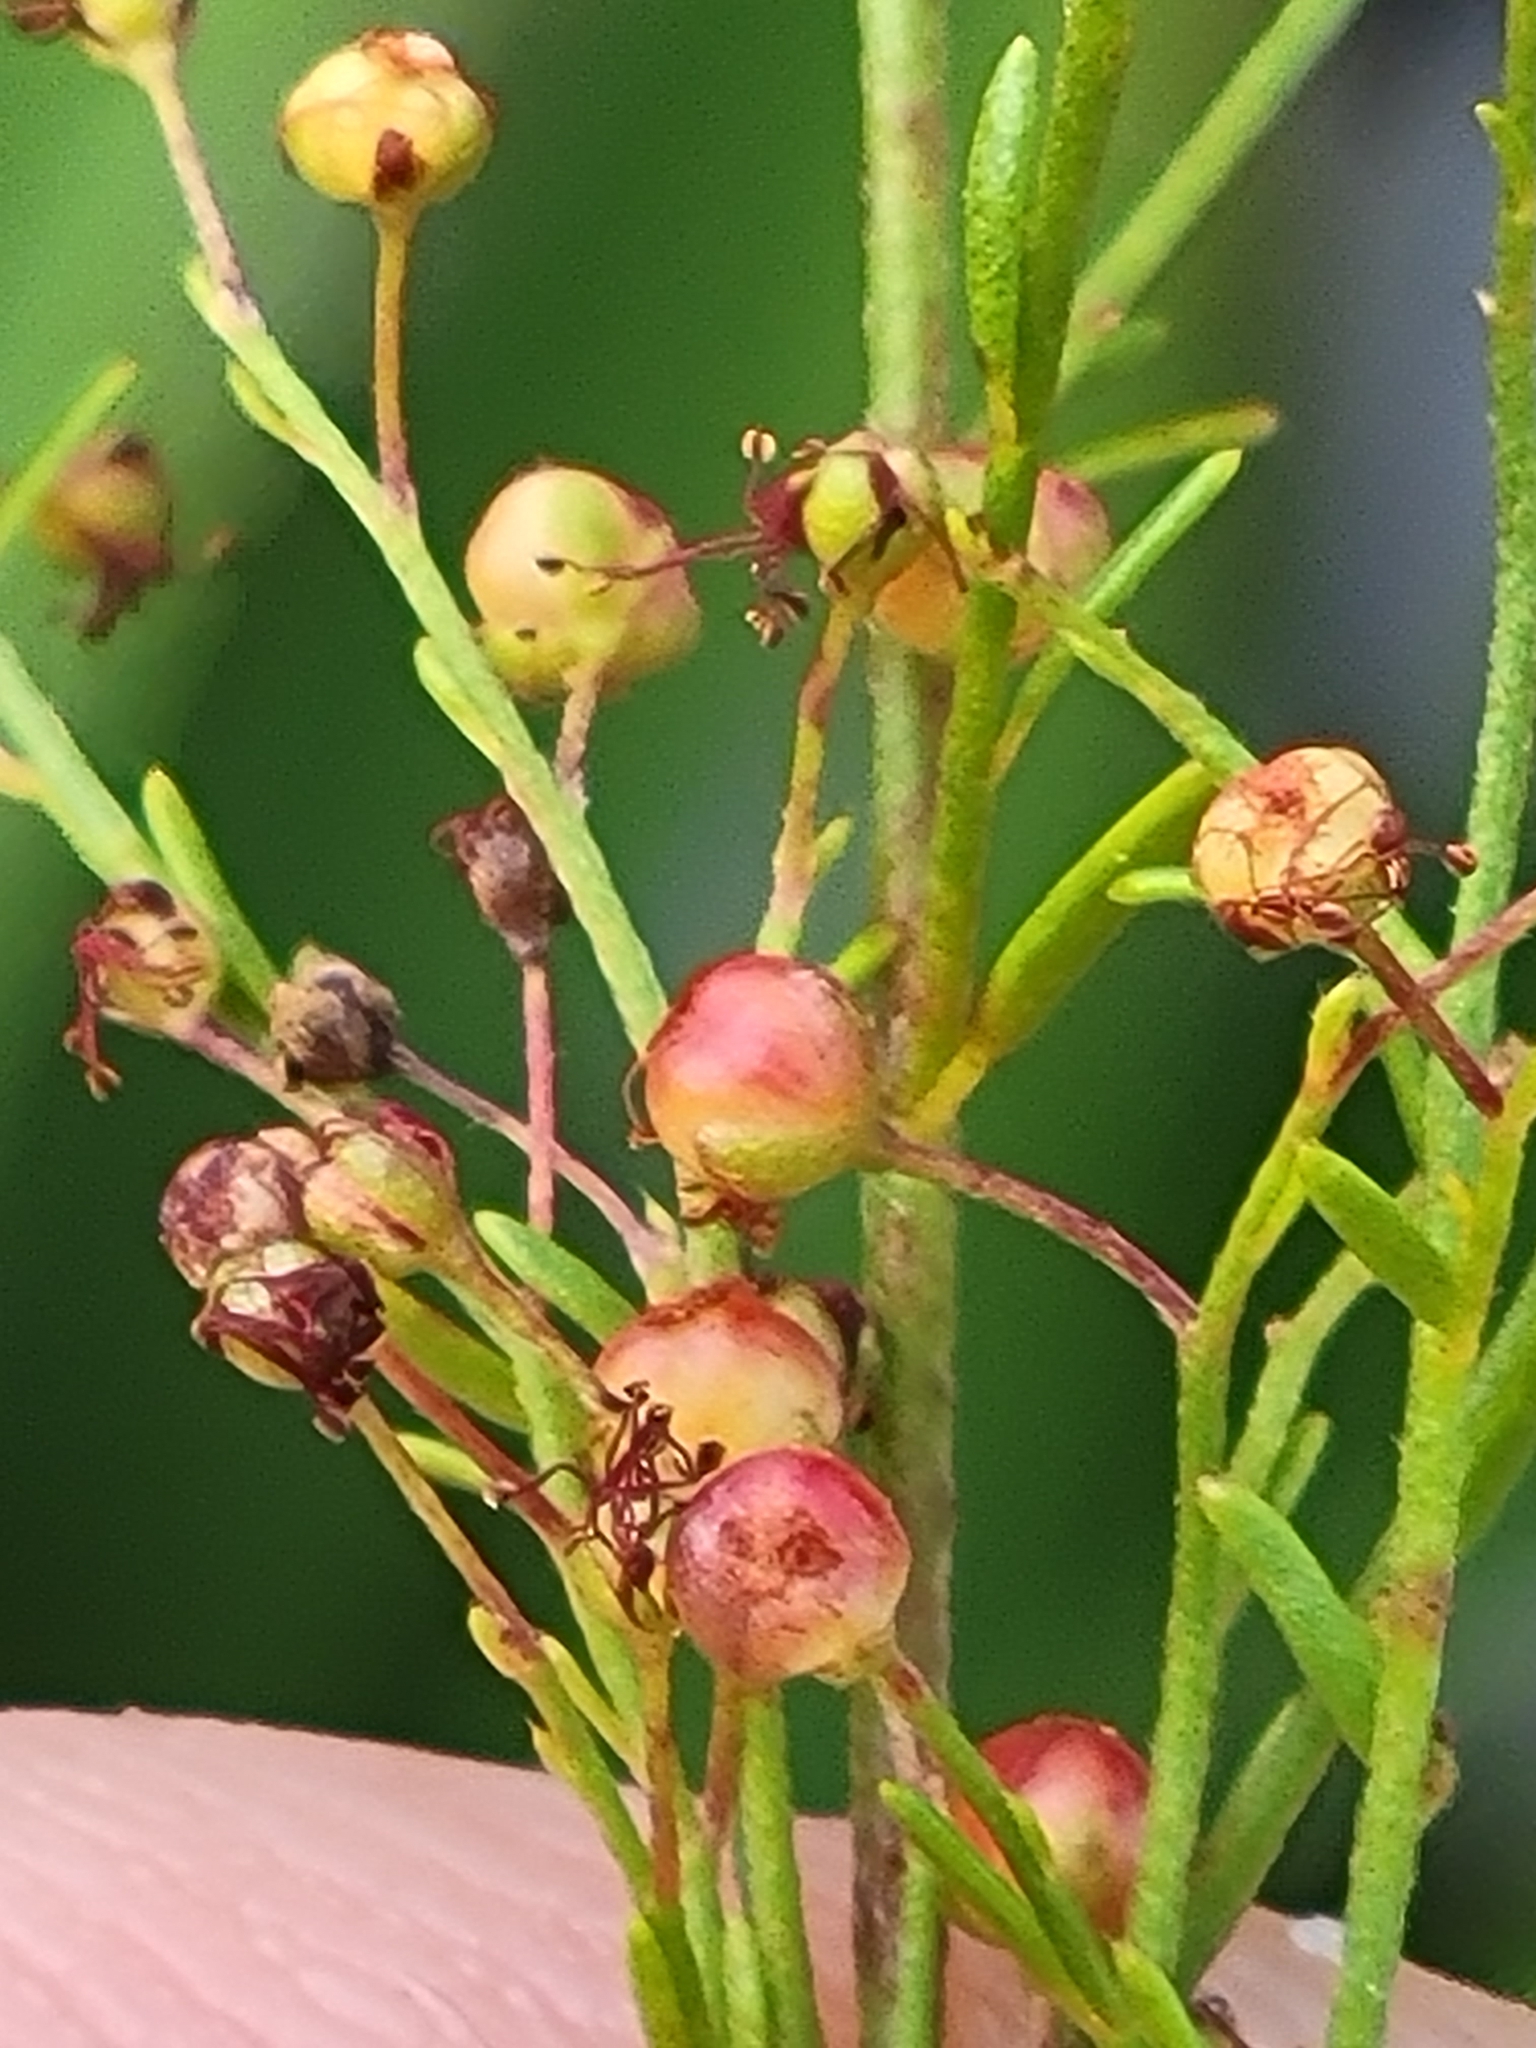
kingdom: Plantae
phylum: Tracheophyta
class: Magnoliopsida
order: Malvales
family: Cistaceae
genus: Lechea
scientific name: Lechea deckertii
